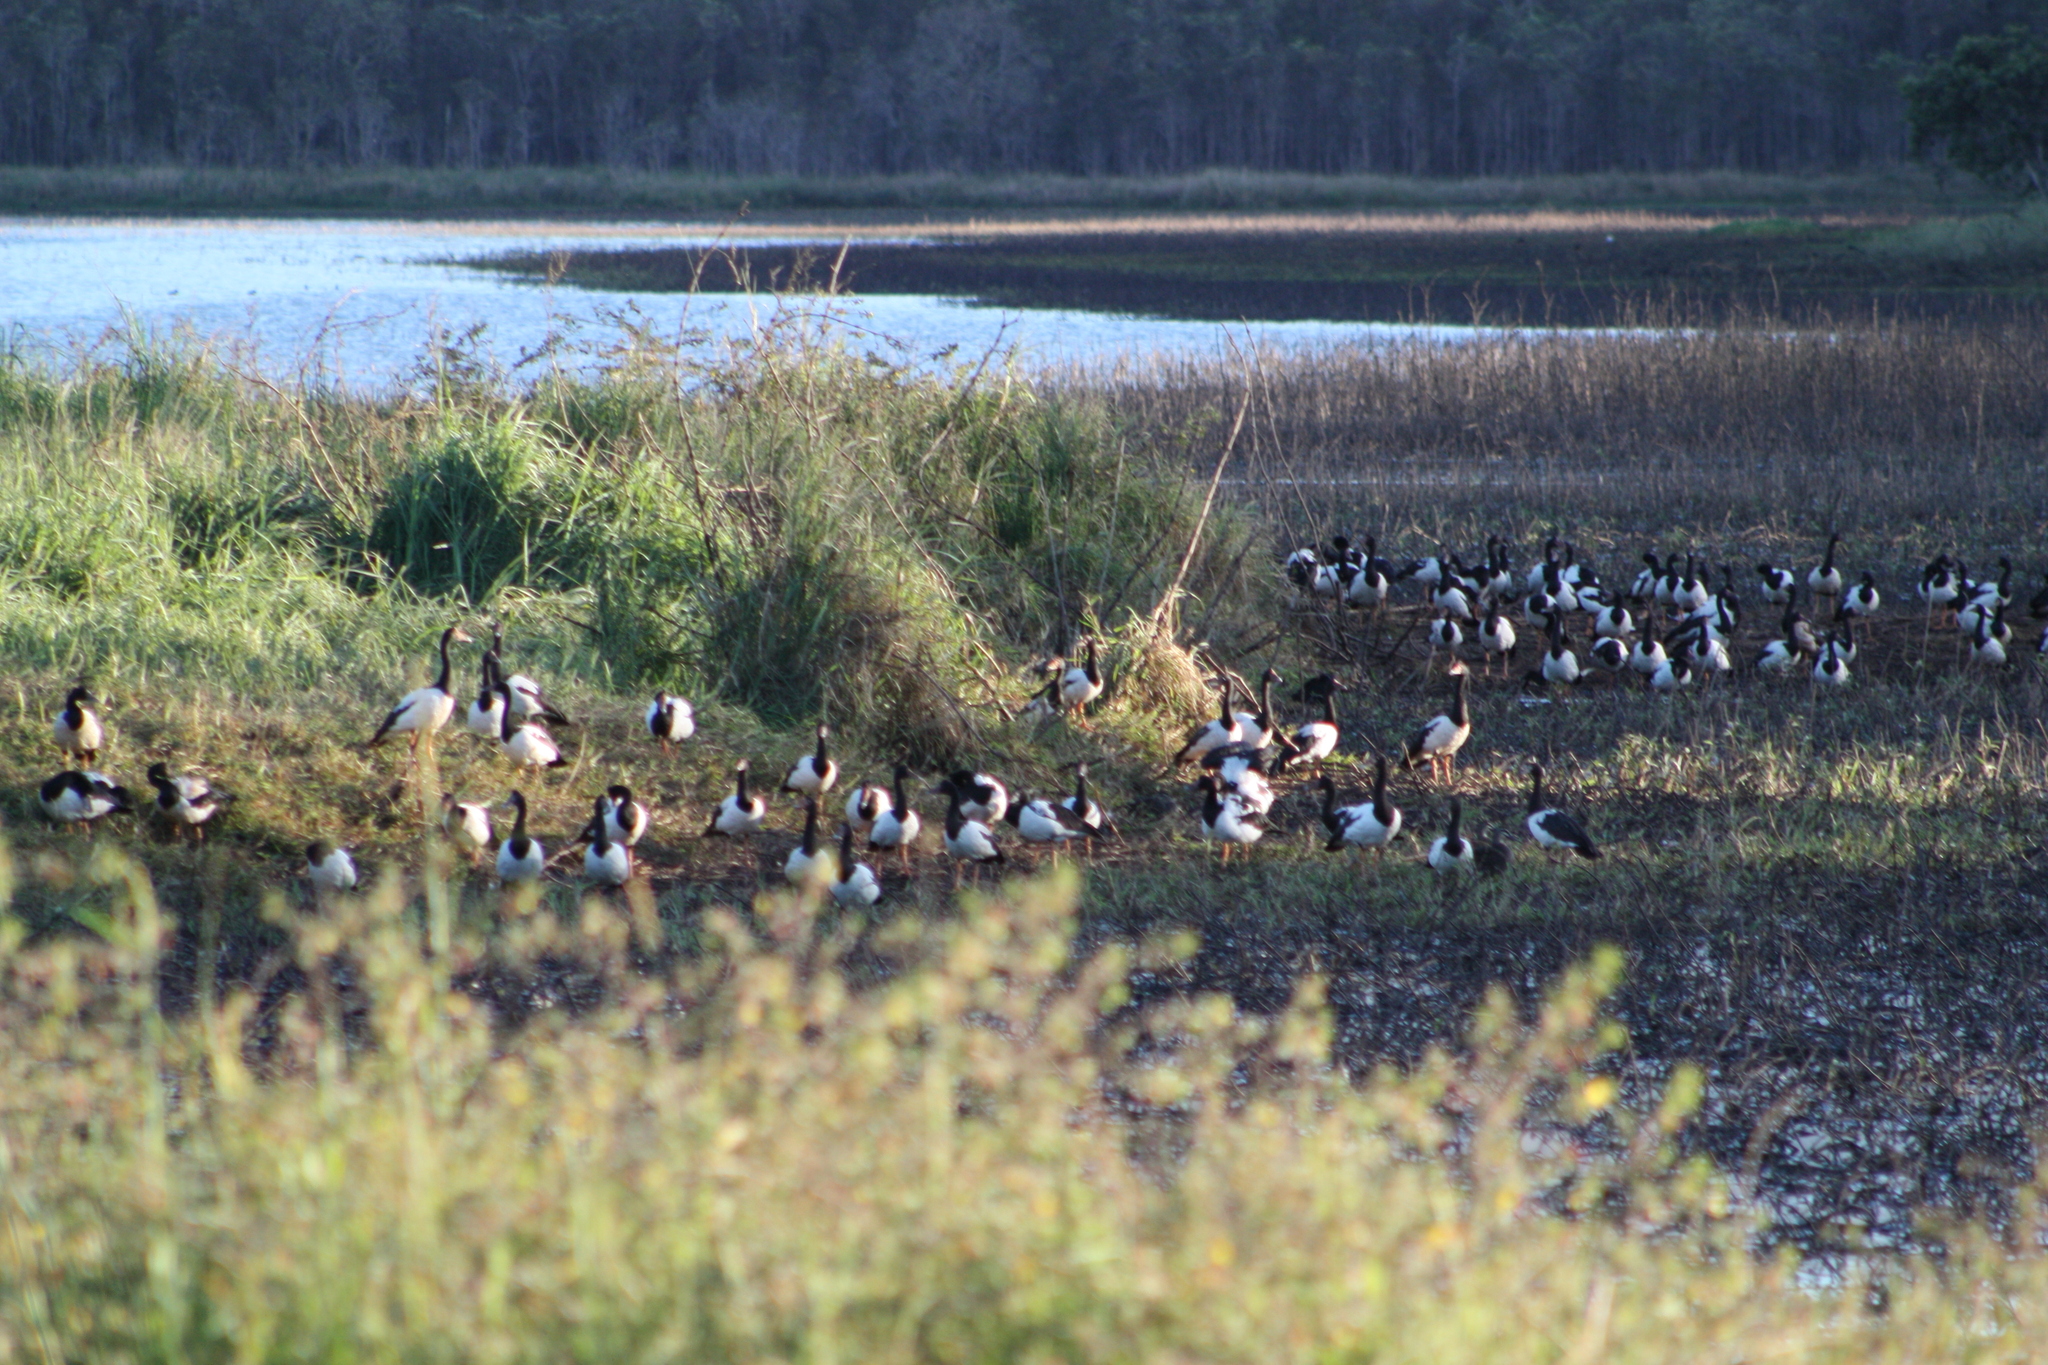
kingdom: Animalia
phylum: Chordata
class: Aves
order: Anseriformes
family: Anseranatidae
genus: Anseranas
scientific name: Anseranas semipalmata
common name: Magpie goose
